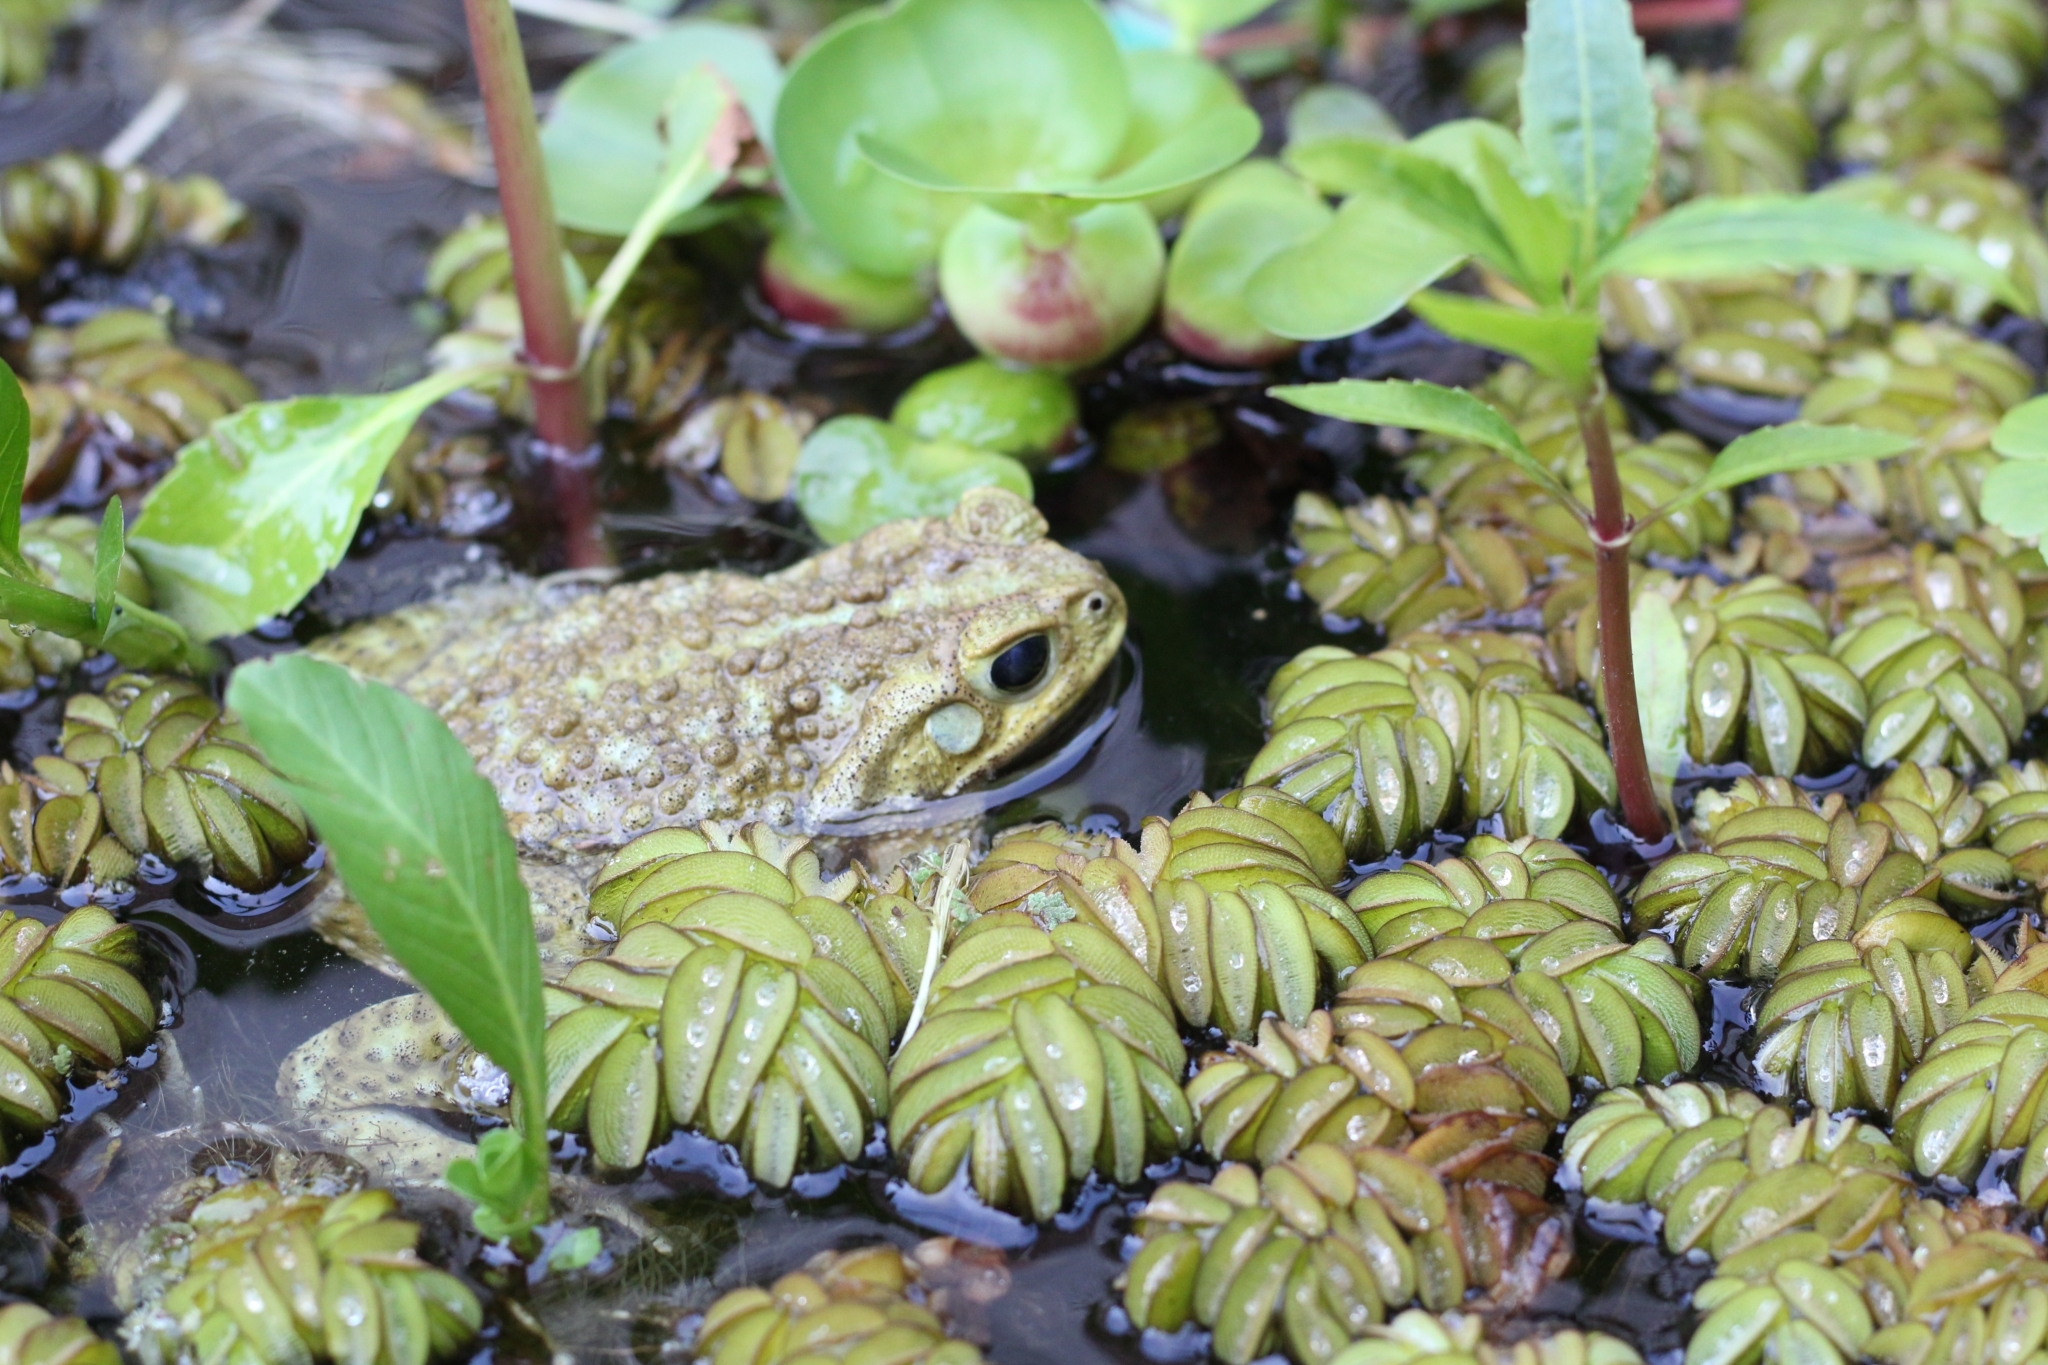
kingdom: Animalia
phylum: Chordata
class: Amphibia
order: Anura
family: Bufonidae
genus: Rhinella
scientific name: Rhinella arenarum
